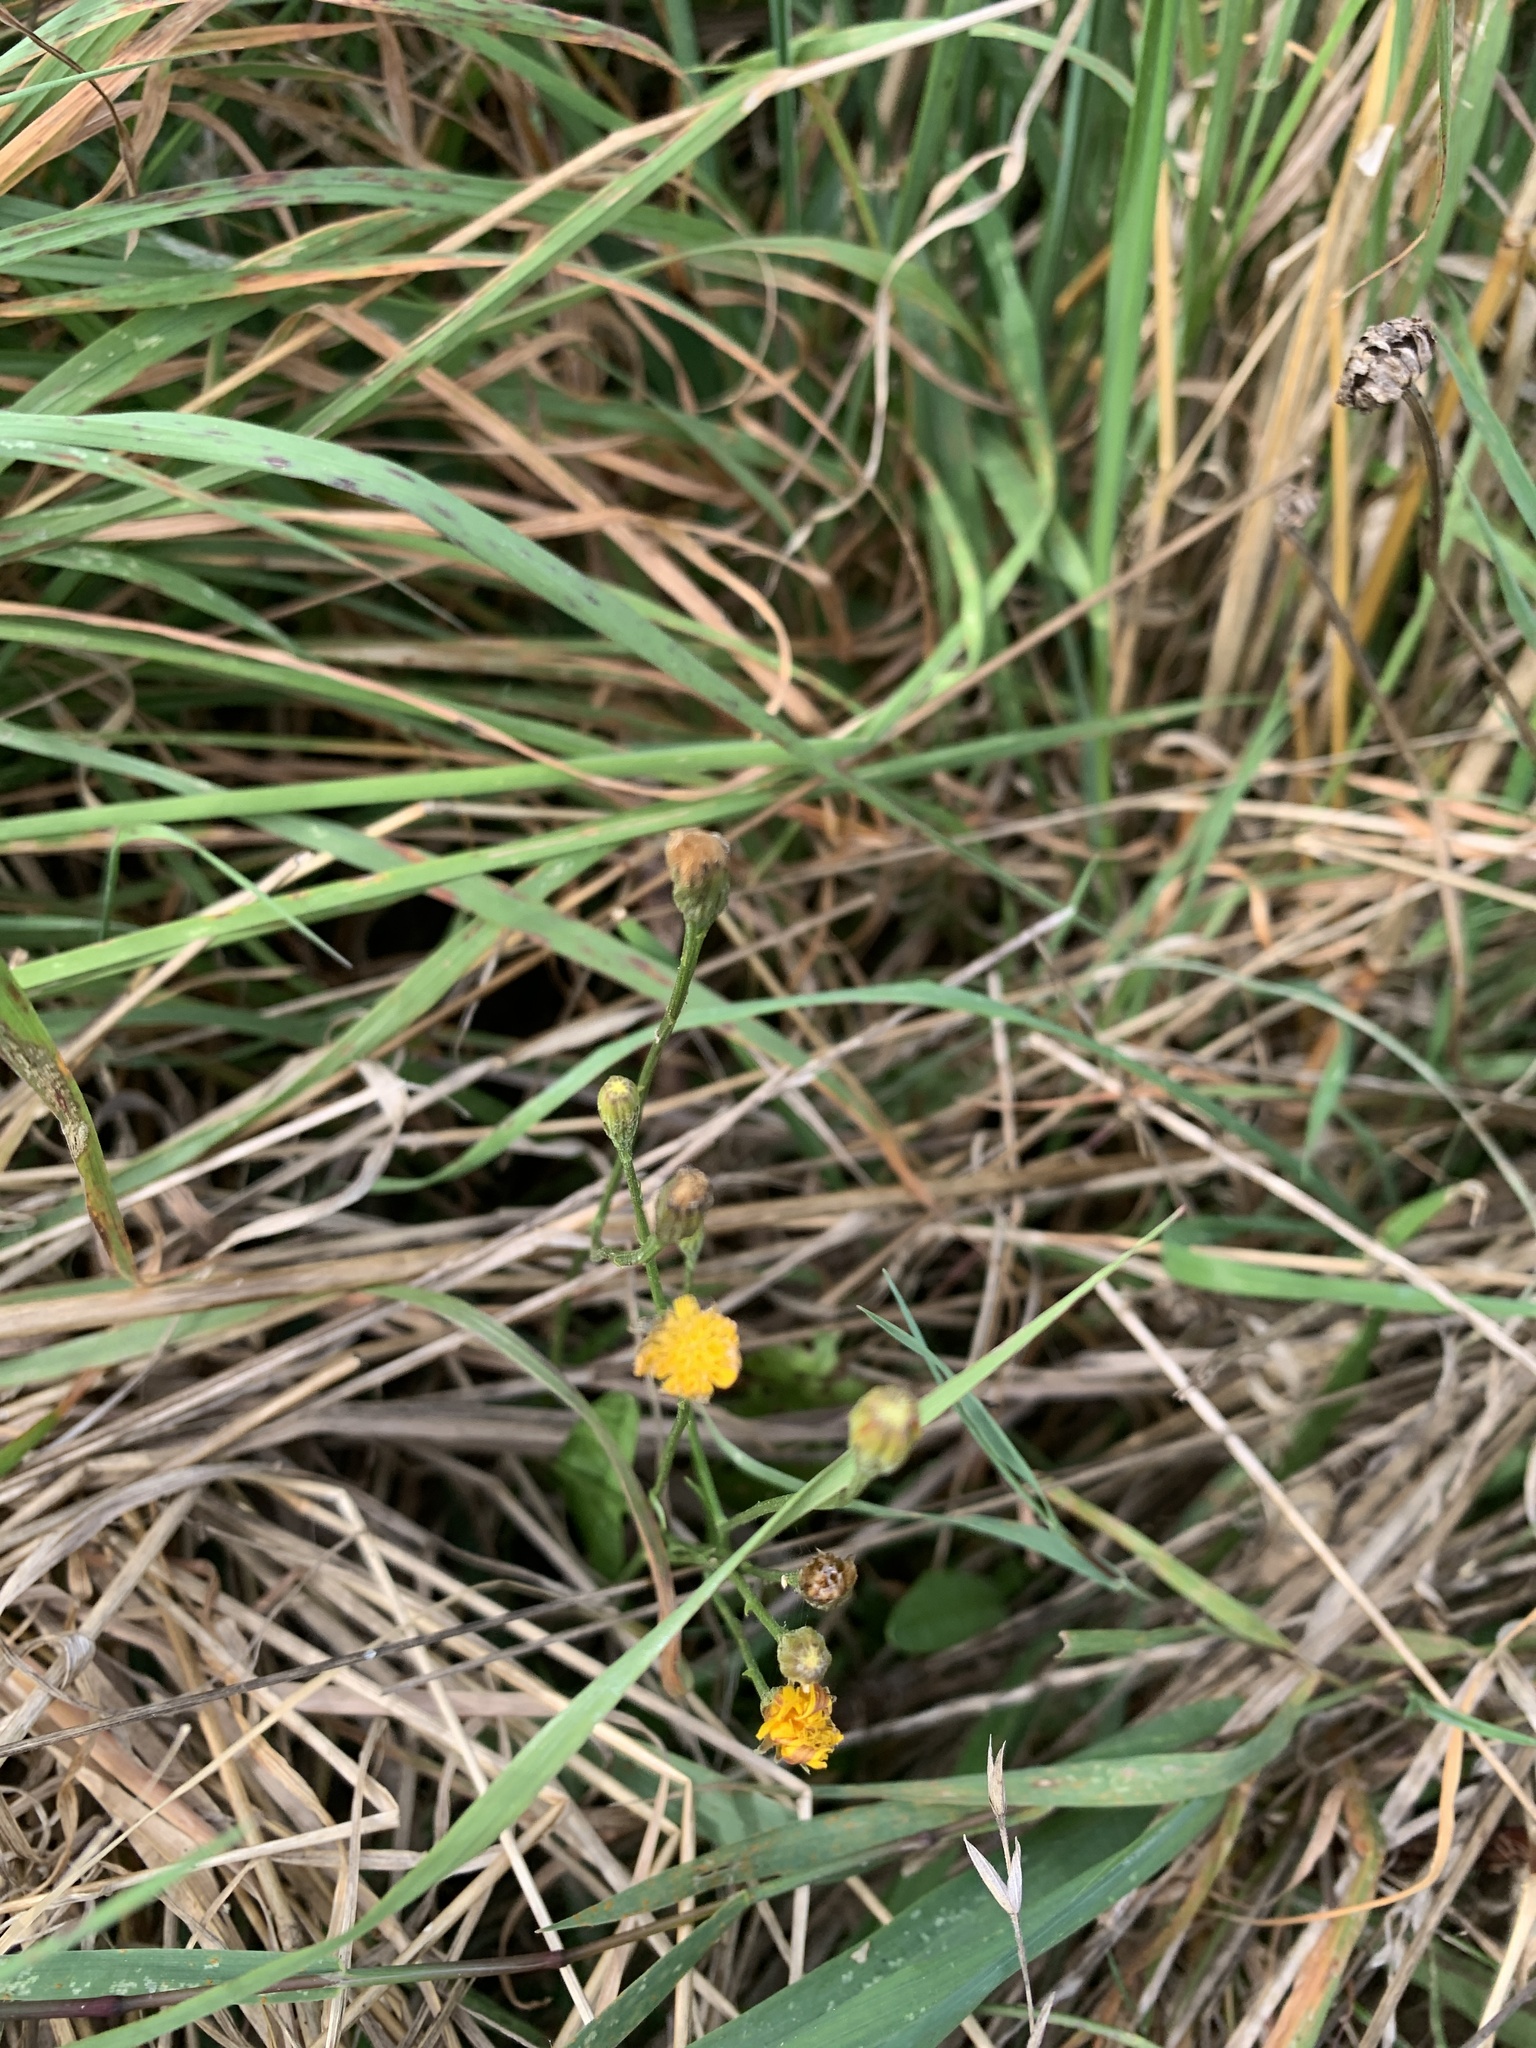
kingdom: Plantae
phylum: Tracheophyta
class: Magnoliopsida
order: Asterales
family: Asteraceae
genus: Crepis
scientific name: Crepis capillaris
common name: Smooth hawksbeard
